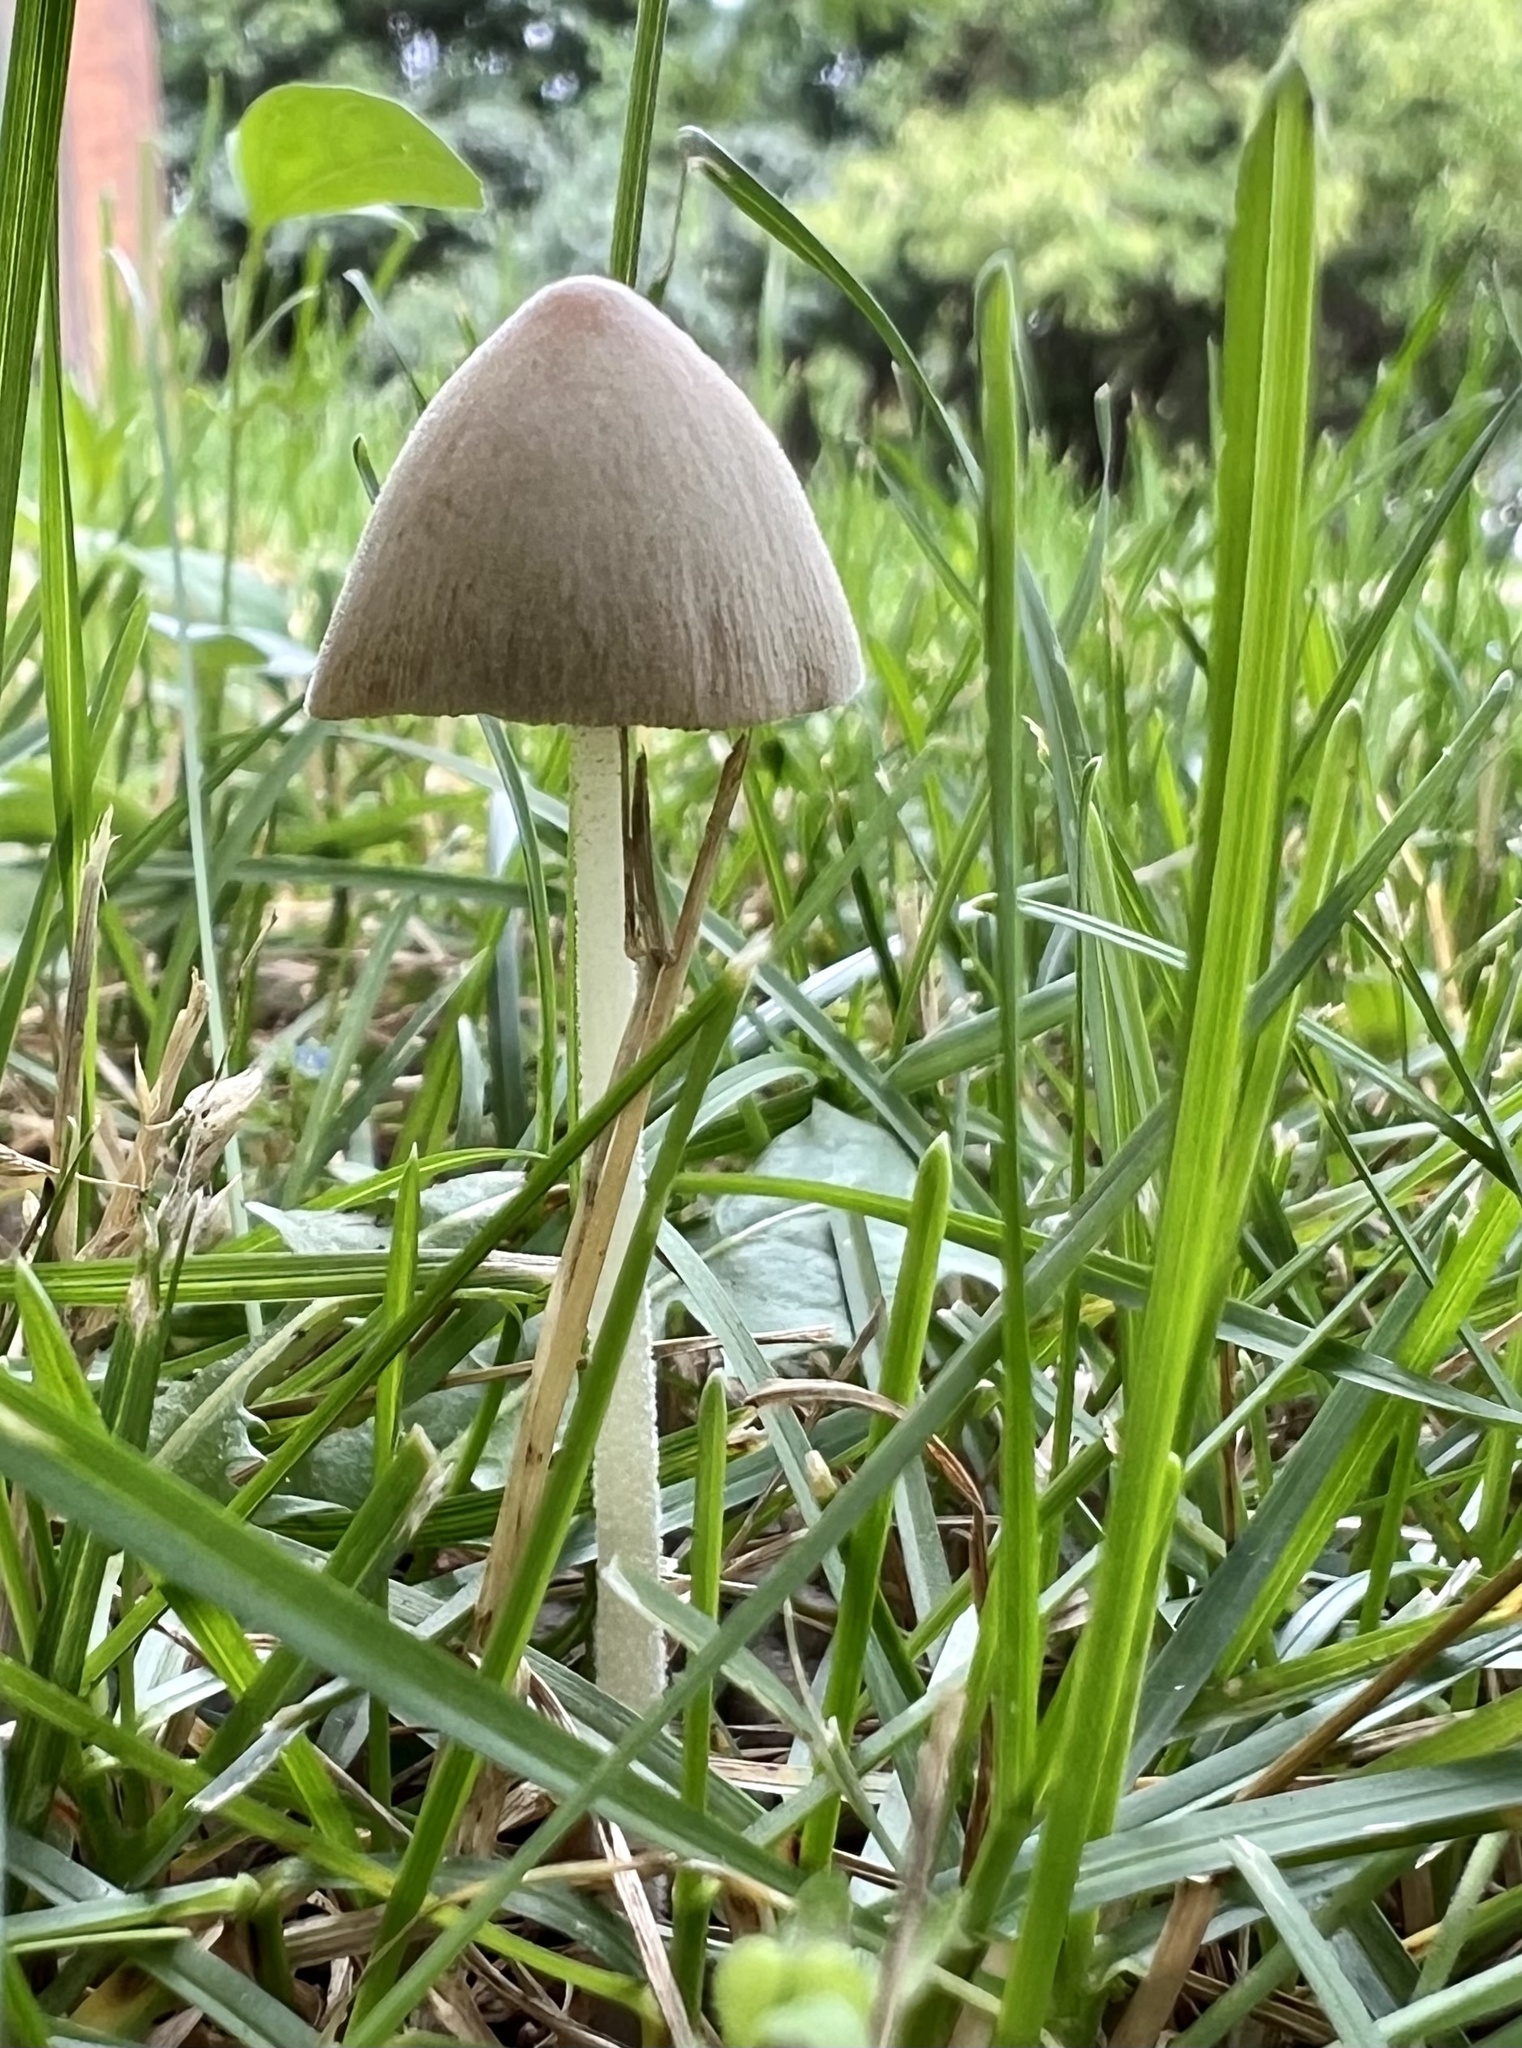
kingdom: Fungi
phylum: Basidiomycota
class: Agaricomycetes
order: Agaricales
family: Bolbitiaceae
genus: Conocybe
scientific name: Conocybe apala
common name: Milky conecap
